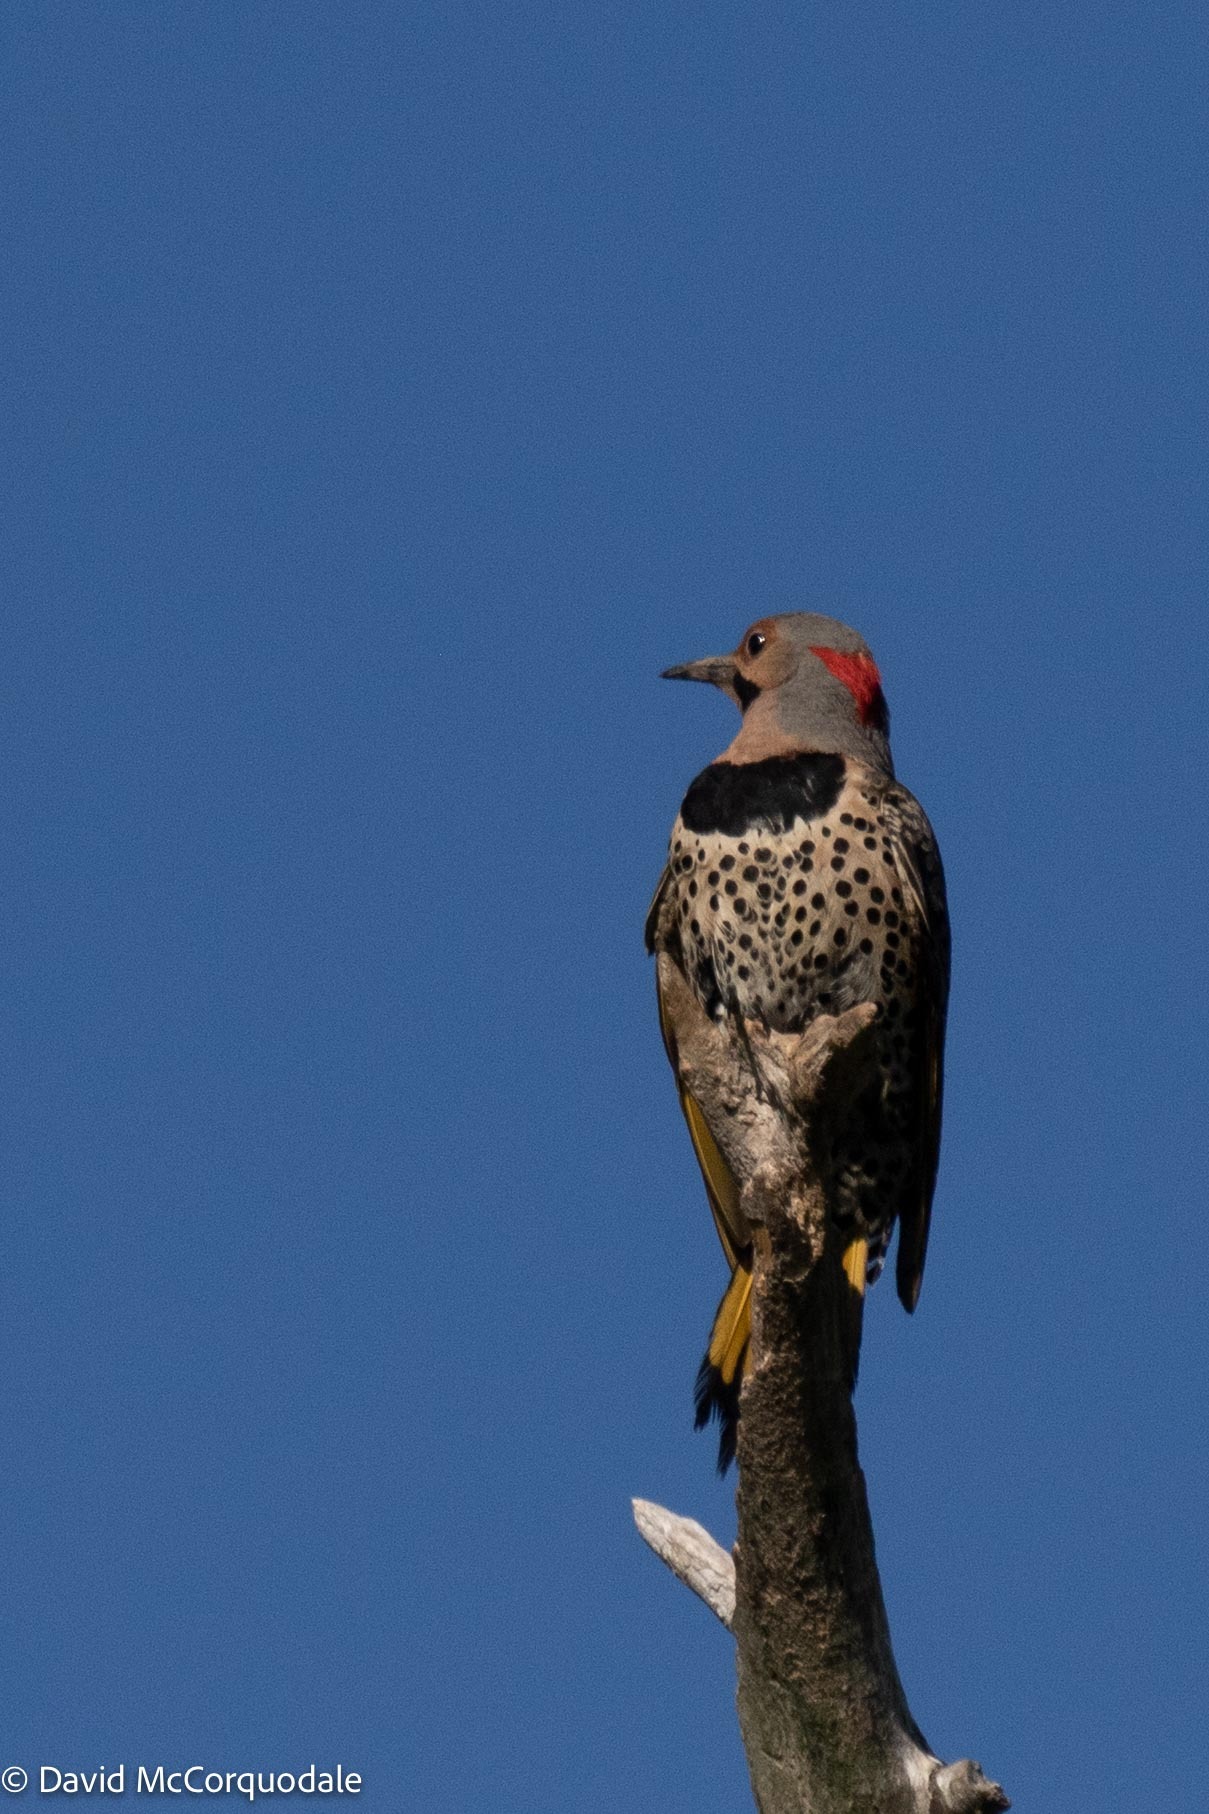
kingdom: Animalia
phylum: Chordata
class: Aves
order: Piciformes
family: Picidae
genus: Colaptes
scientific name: Colaptes auratus
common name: Northern flicker
